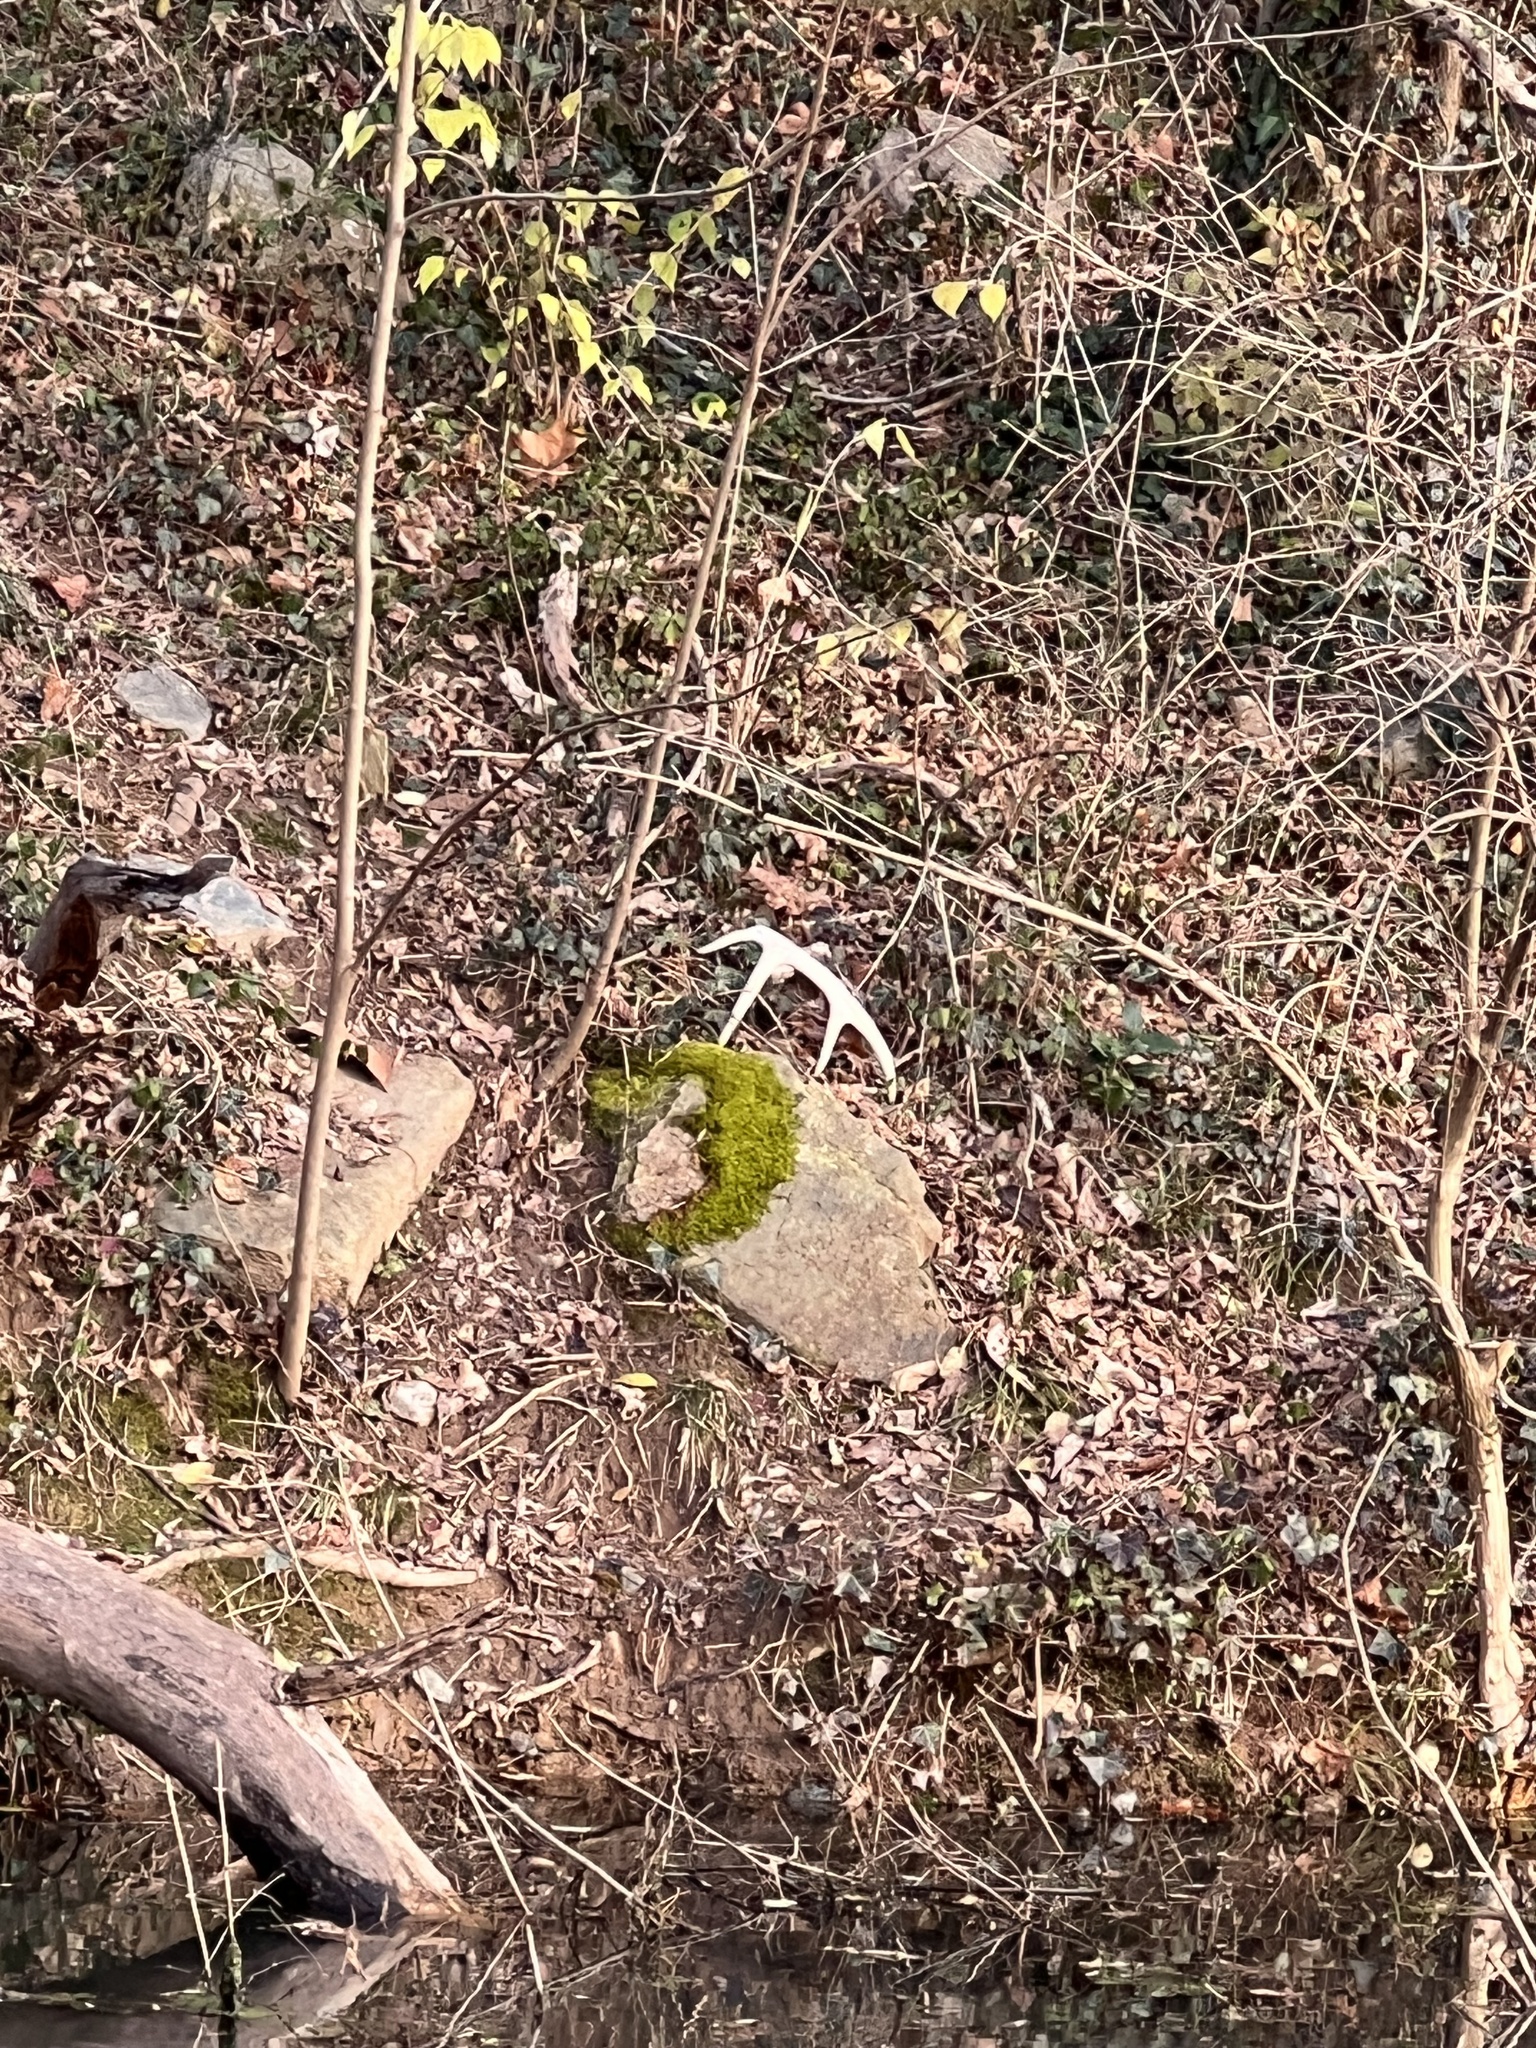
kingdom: Animalia
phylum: Chordata
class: Mammalia
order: Artiodactyla
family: Cervidae
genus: Odocoileus
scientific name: Odocoileus virginianus
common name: White-tailed deer
